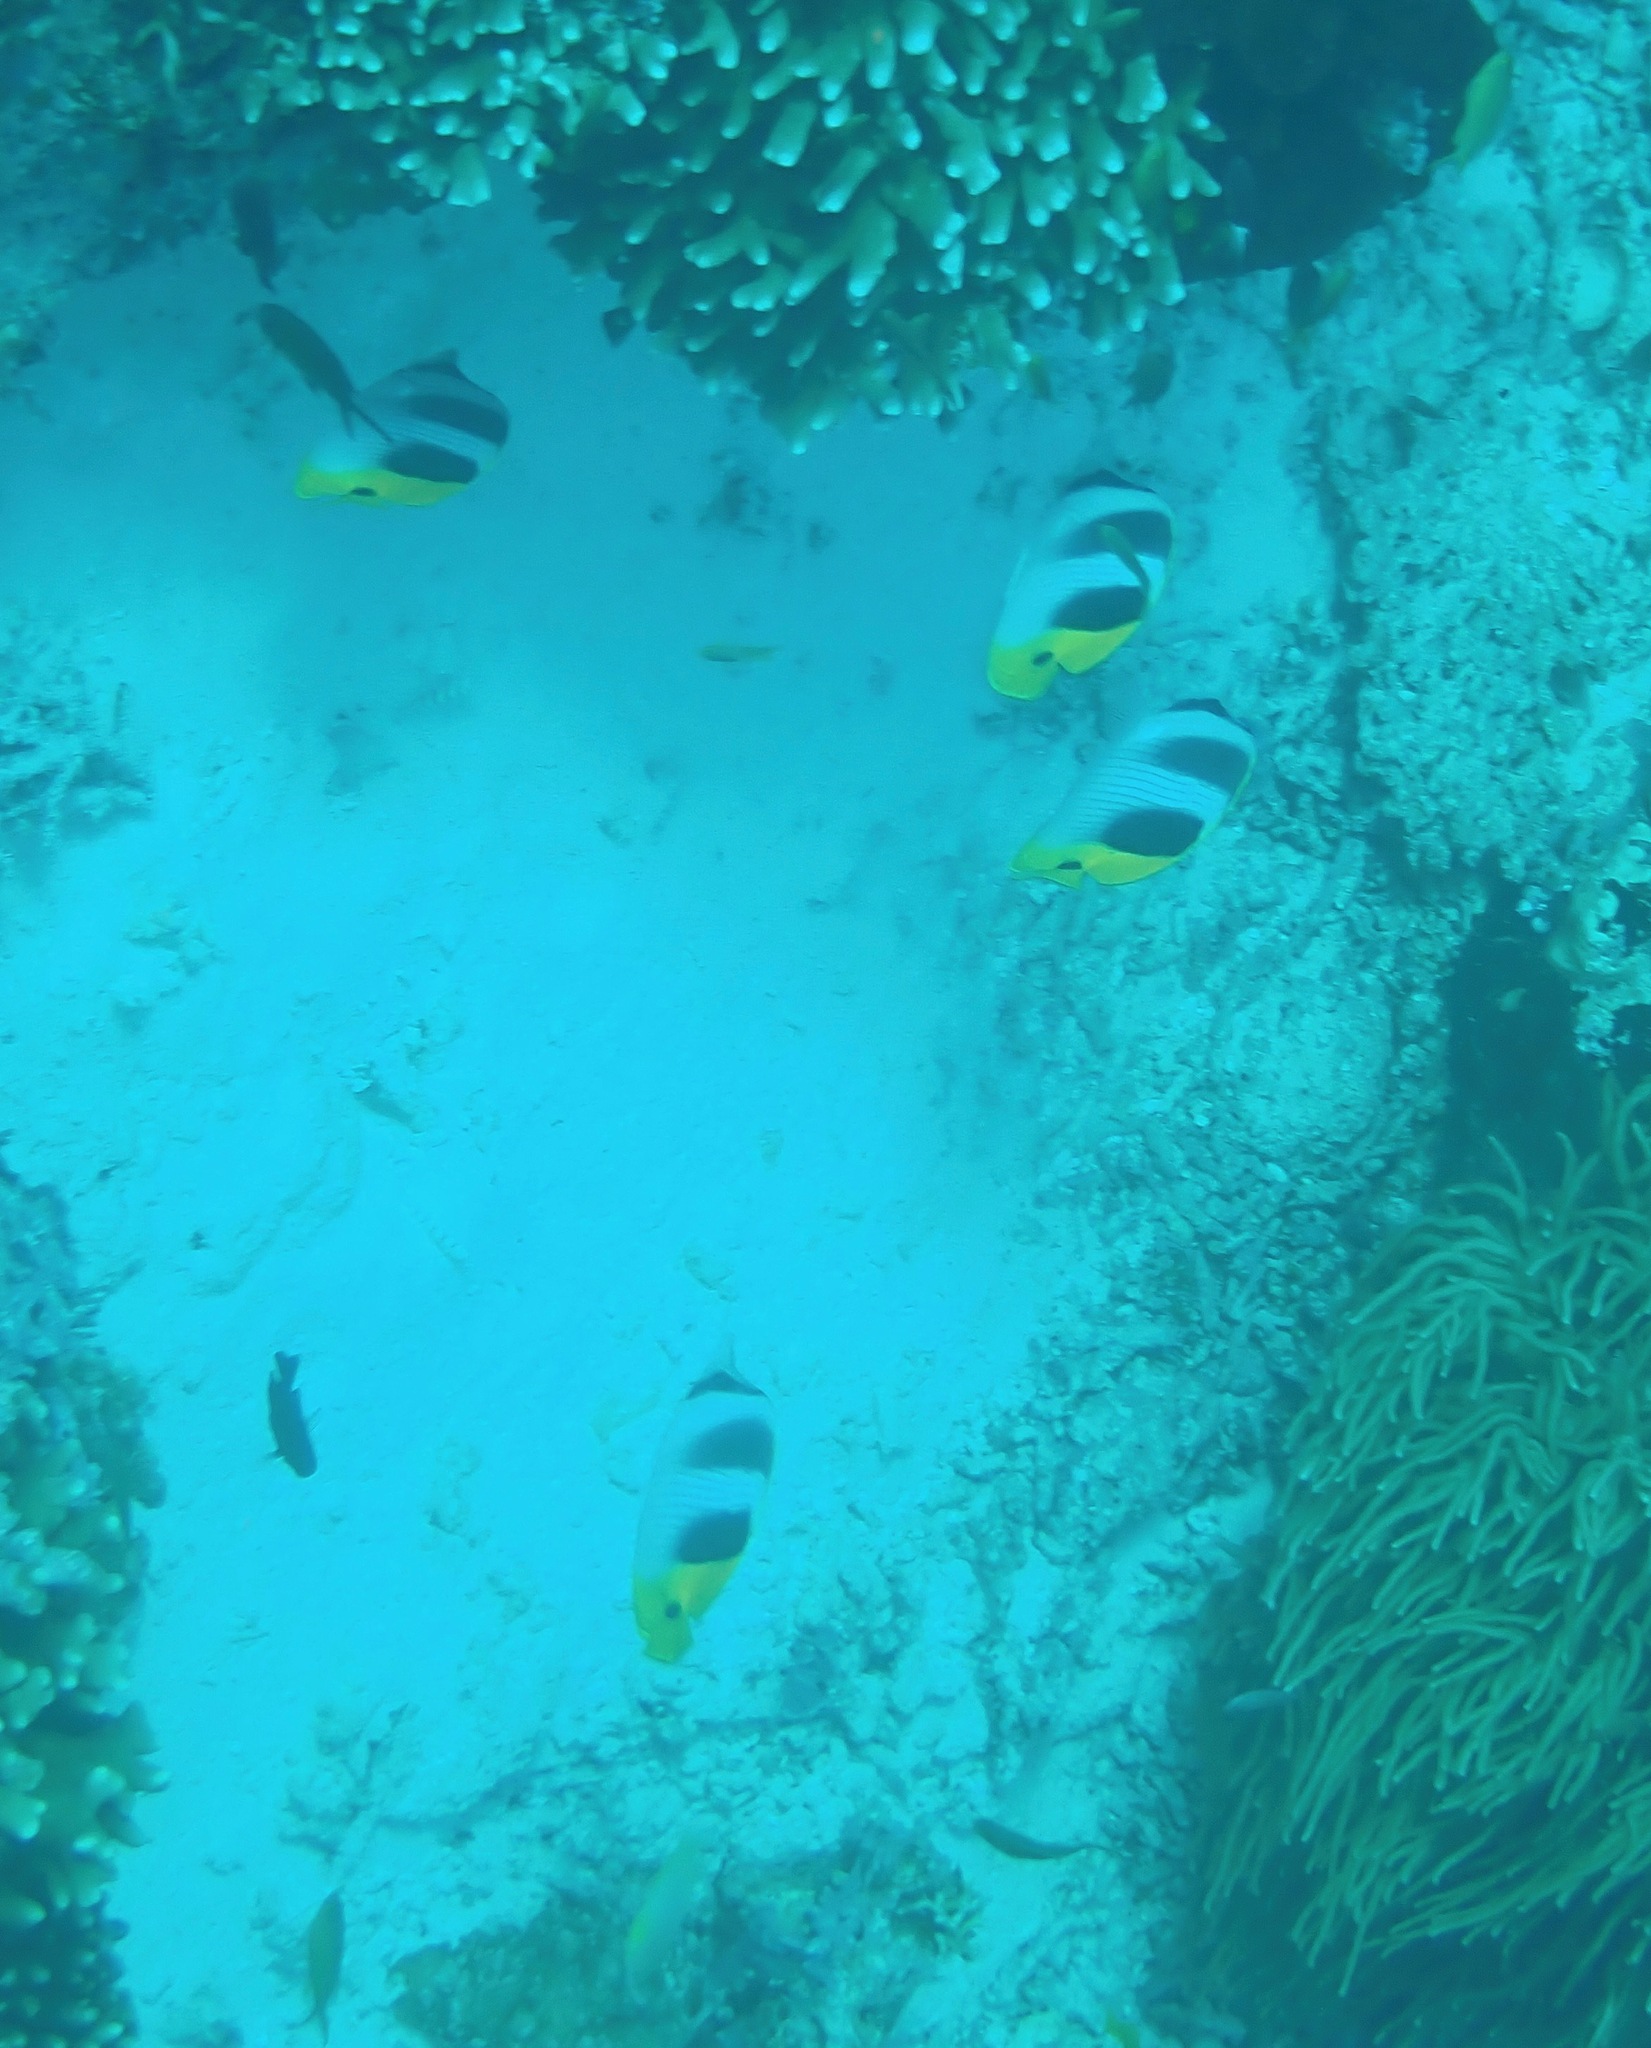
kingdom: Animalia
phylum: Chordata
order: Perciformes
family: Chaetodontidae
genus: Chaetodon
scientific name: Chaetodon ulietensis
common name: Pacific double-saddle butterflyfish
